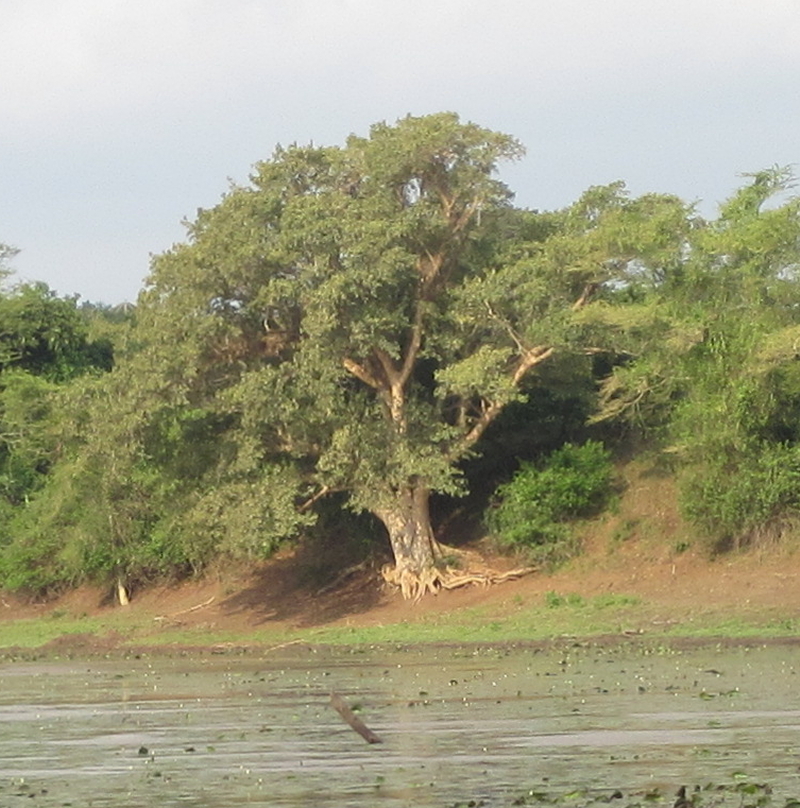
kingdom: Plantae
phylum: Tracheophyta
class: Magnoliopsida
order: Rosales
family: Moraceae
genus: Ficus
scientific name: Ficus sycomorus
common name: Sycomore
